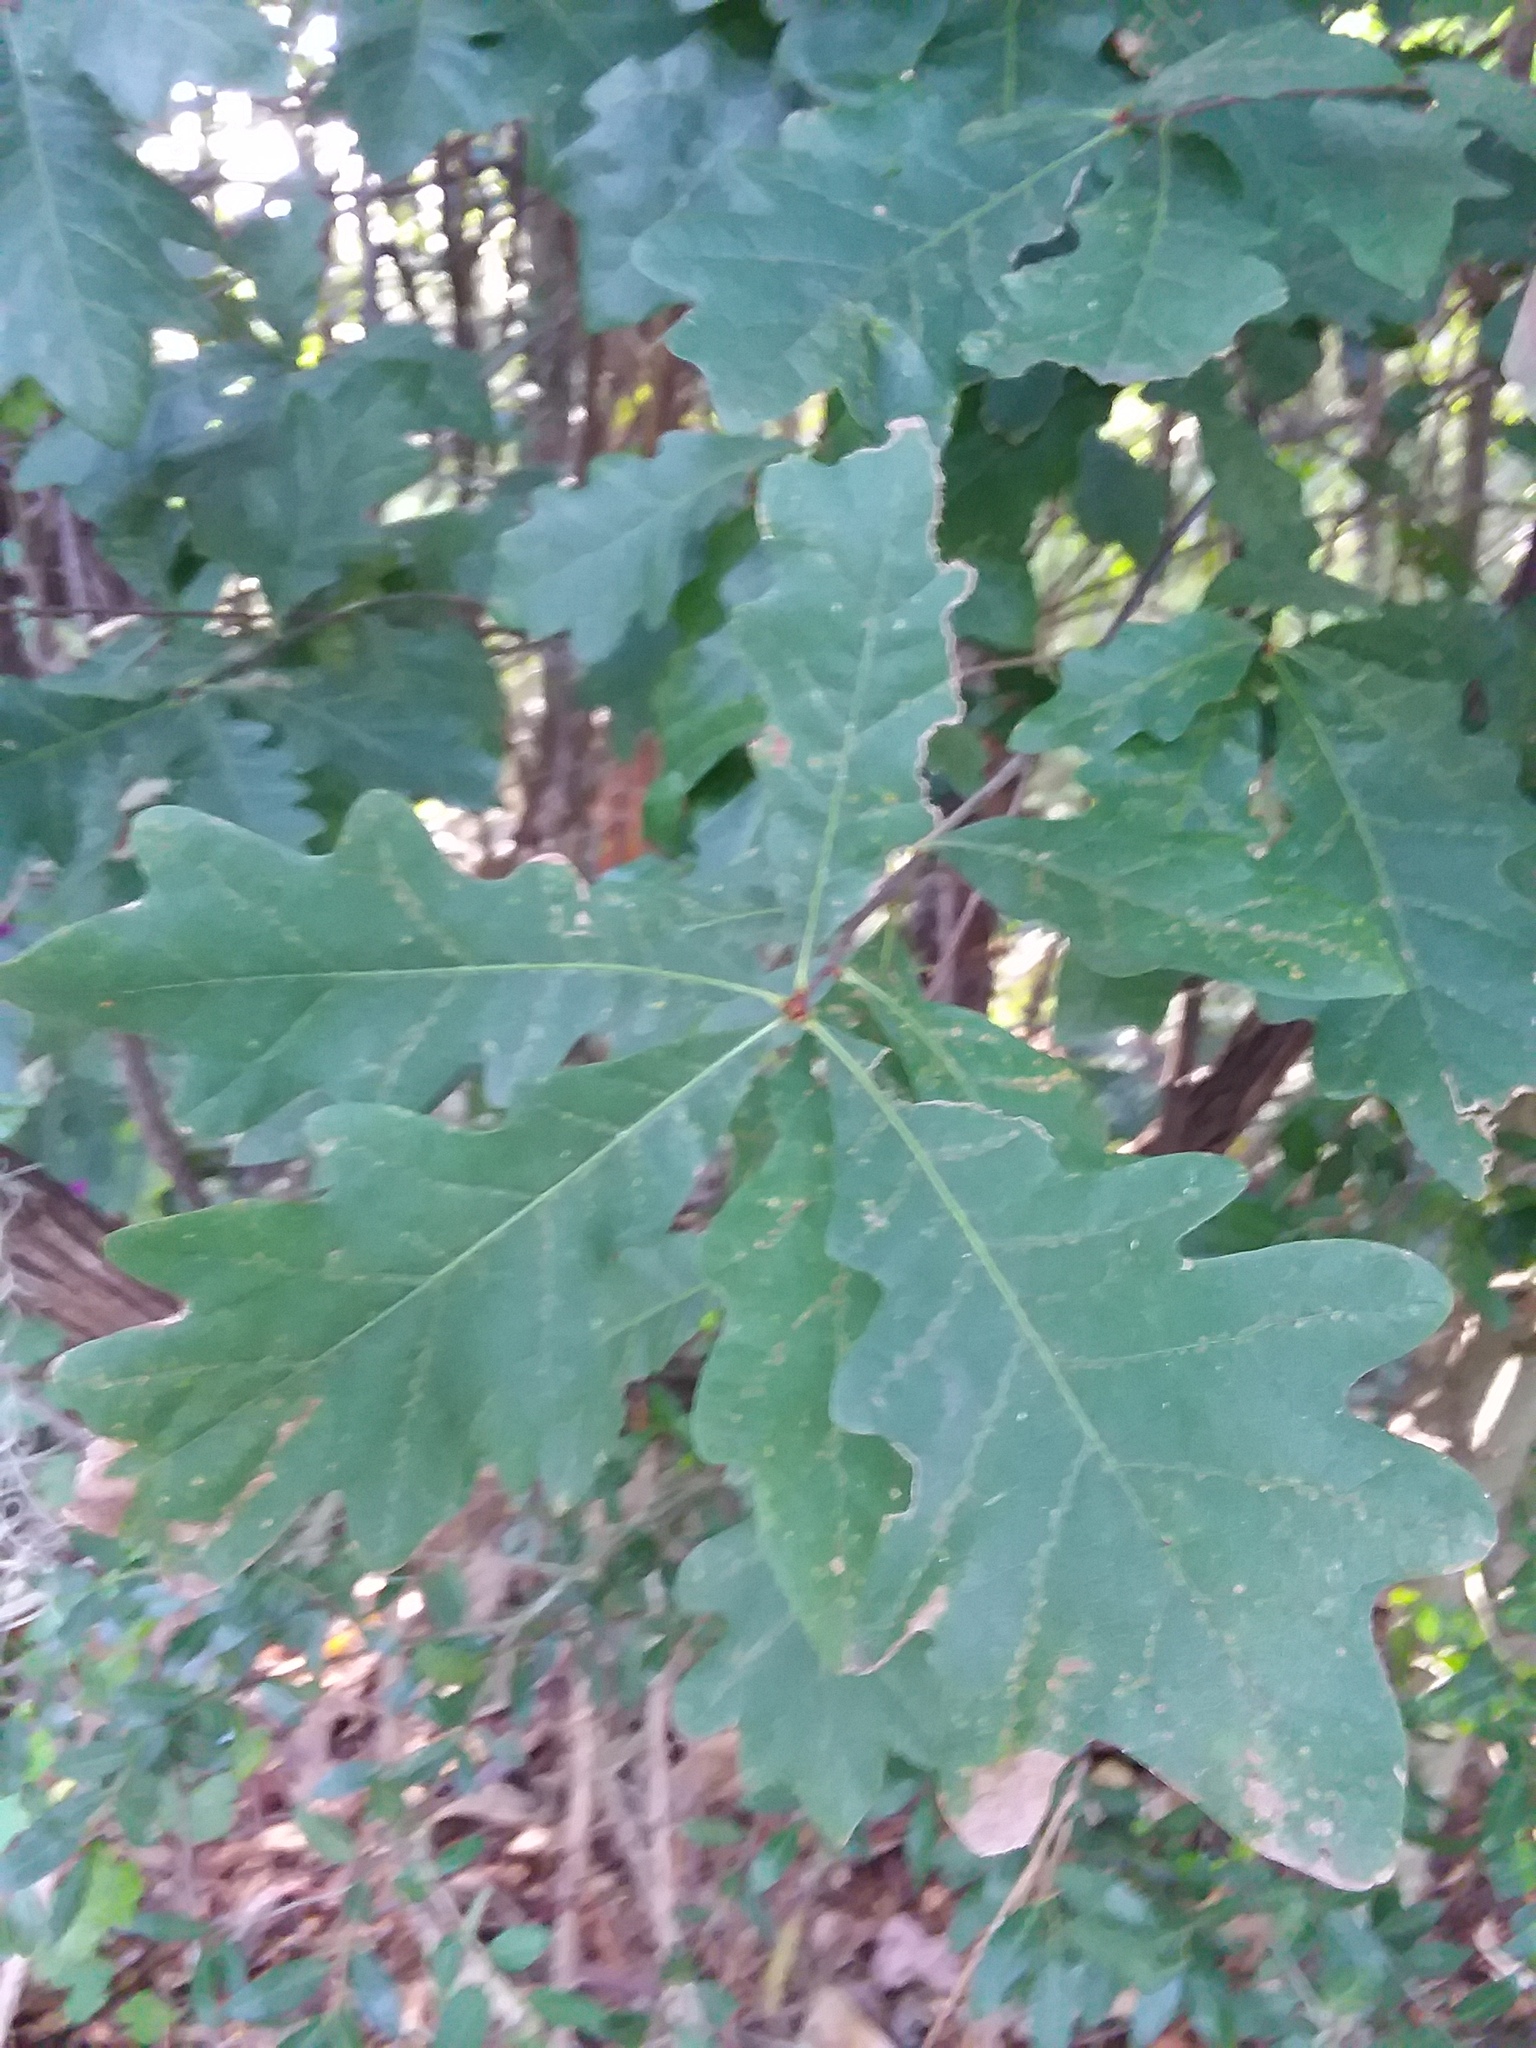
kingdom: Plantae
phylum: Tracheophyta
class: Magnoliopsida
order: Fagales
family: Fagaceae
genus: Quercus
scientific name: Quercus alba
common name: White oak
